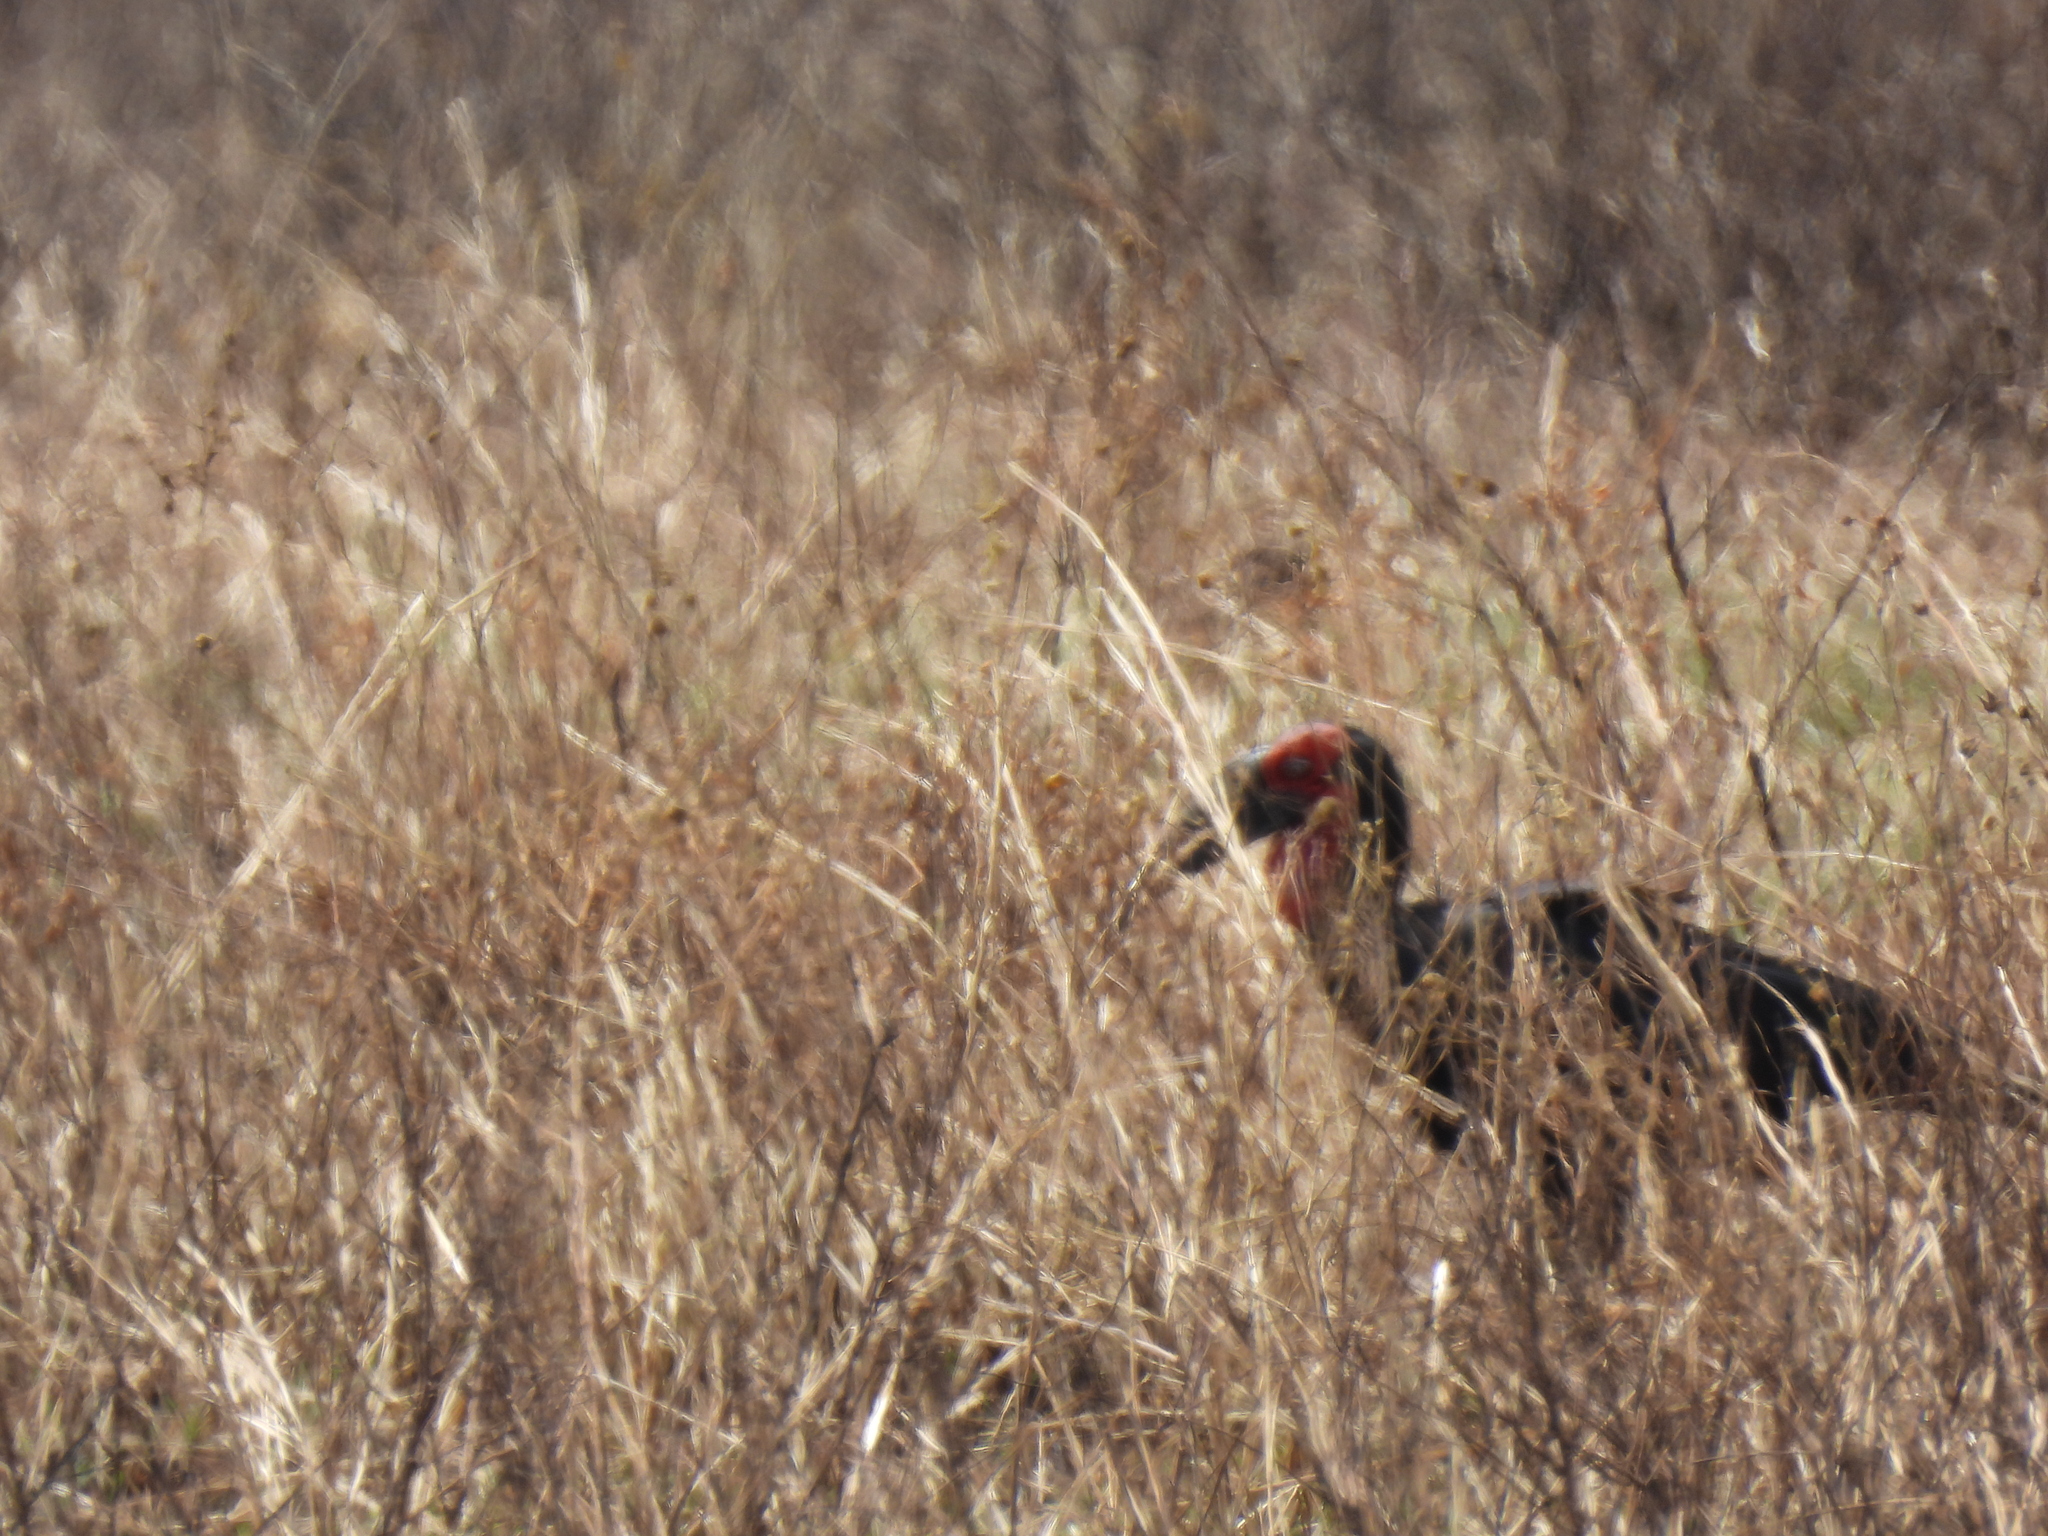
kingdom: Animalia
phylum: Chordata
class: Aves
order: Bucerotiformes
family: Bucorvidae
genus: Bucorvus
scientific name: Bucorvus leadbeateri
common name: Southern ground-hornbill
